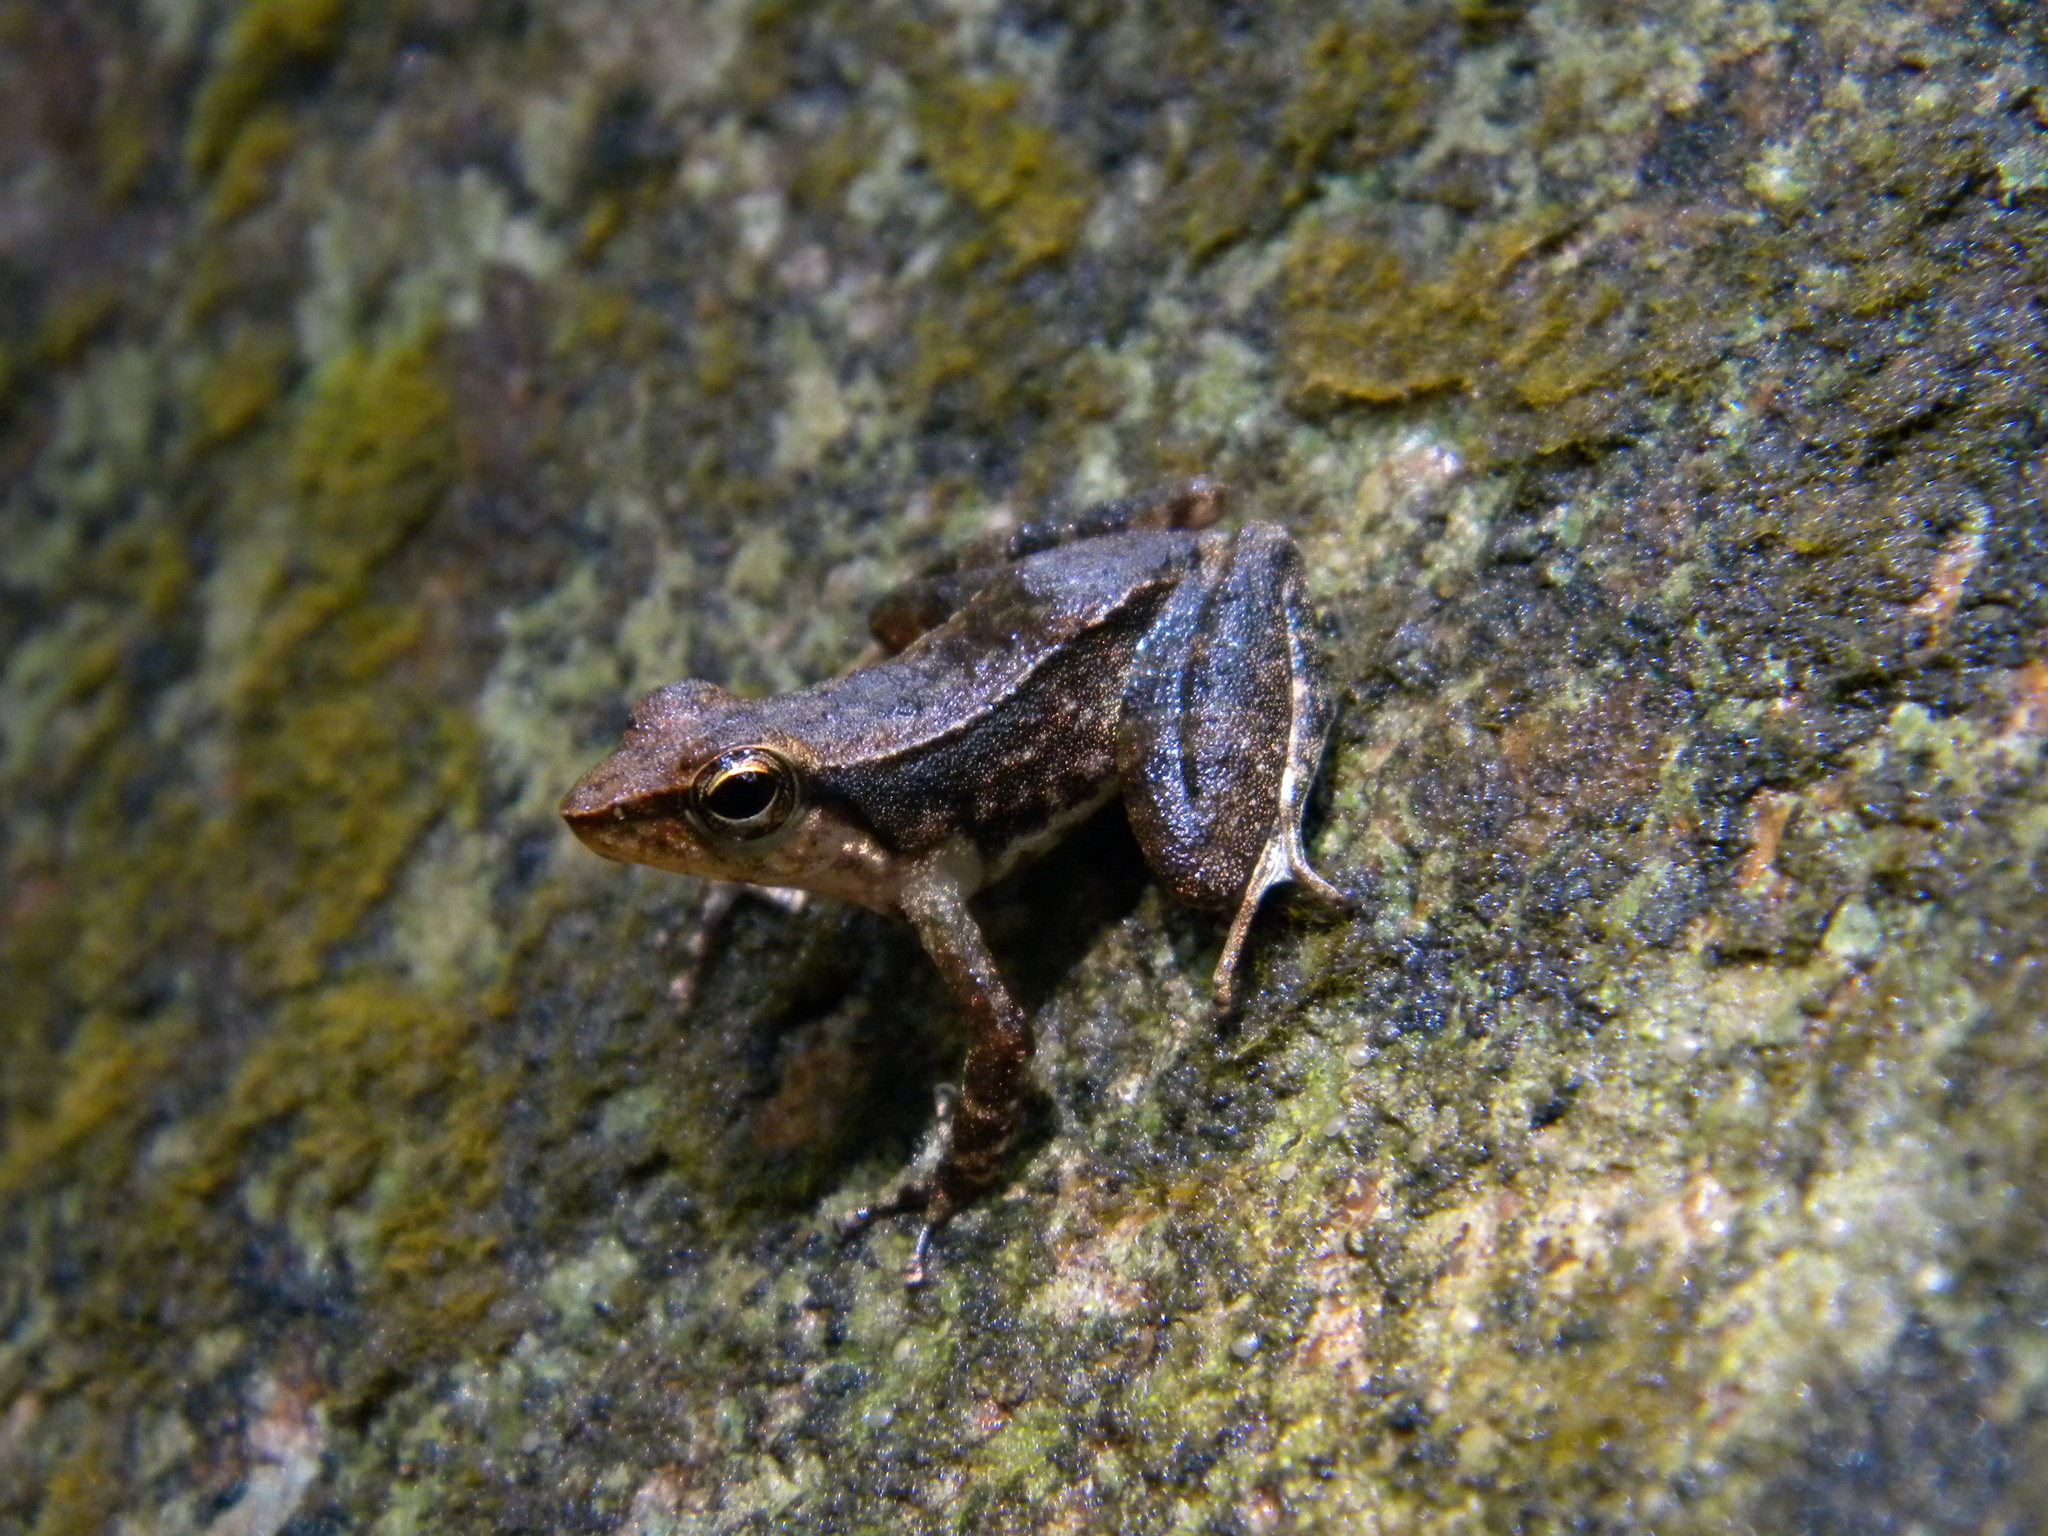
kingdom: Animalia
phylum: Chordata
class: Amphibia
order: Anura
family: Micrixalidae
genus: Micrixalus
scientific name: Micrixalus herrei
